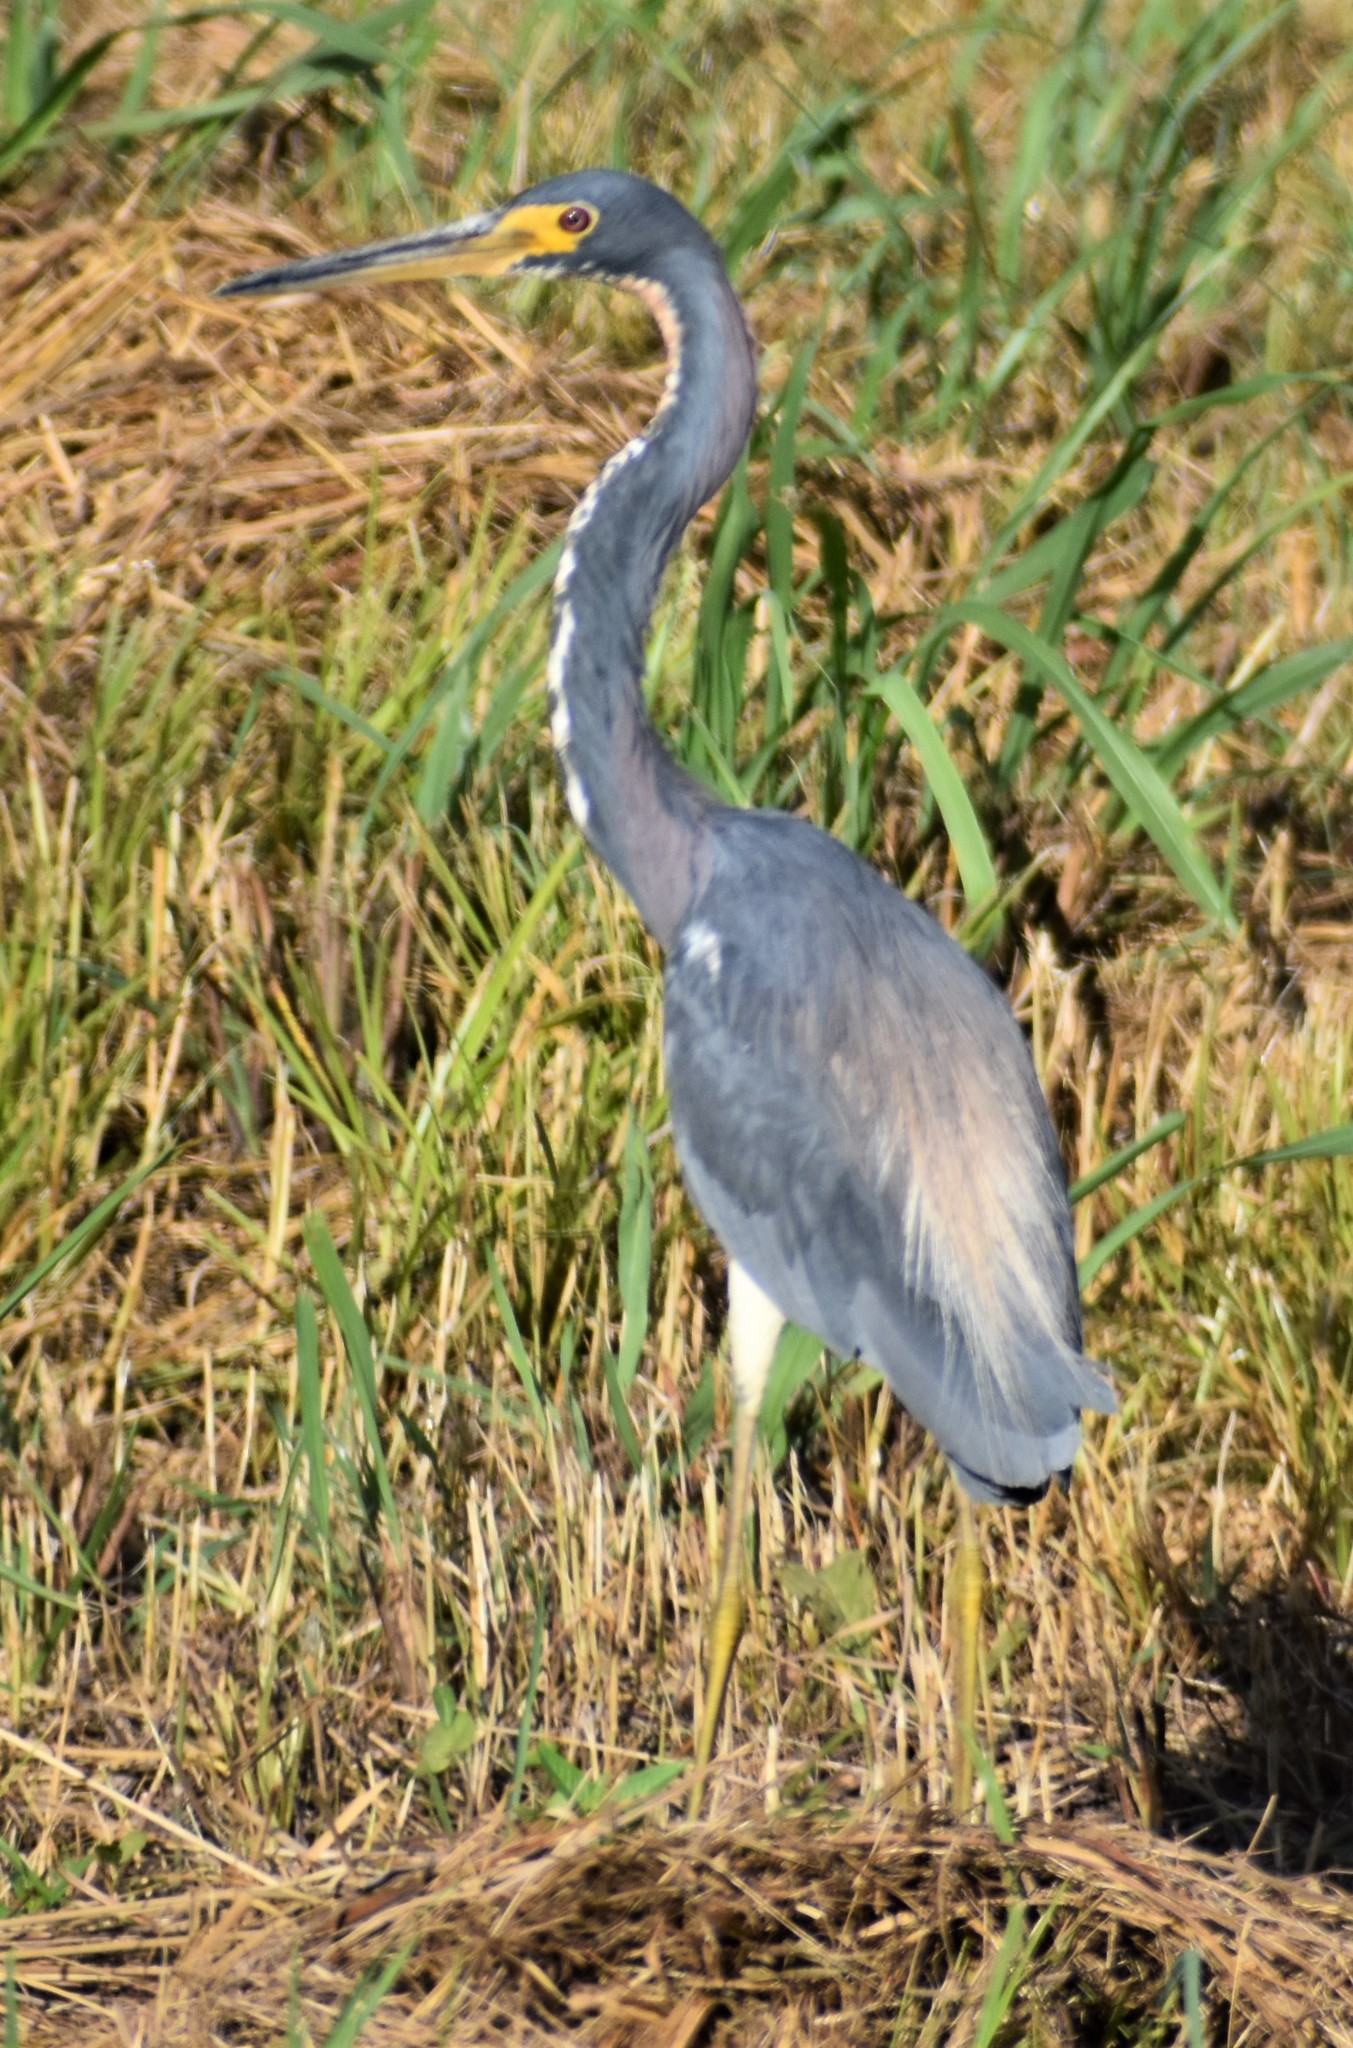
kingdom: Animalia
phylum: Chordata
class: Aves
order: Pelecaniformes
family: Ardeidae
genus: Egretta
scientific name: Egretta tricolor
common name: Tricolored heron
